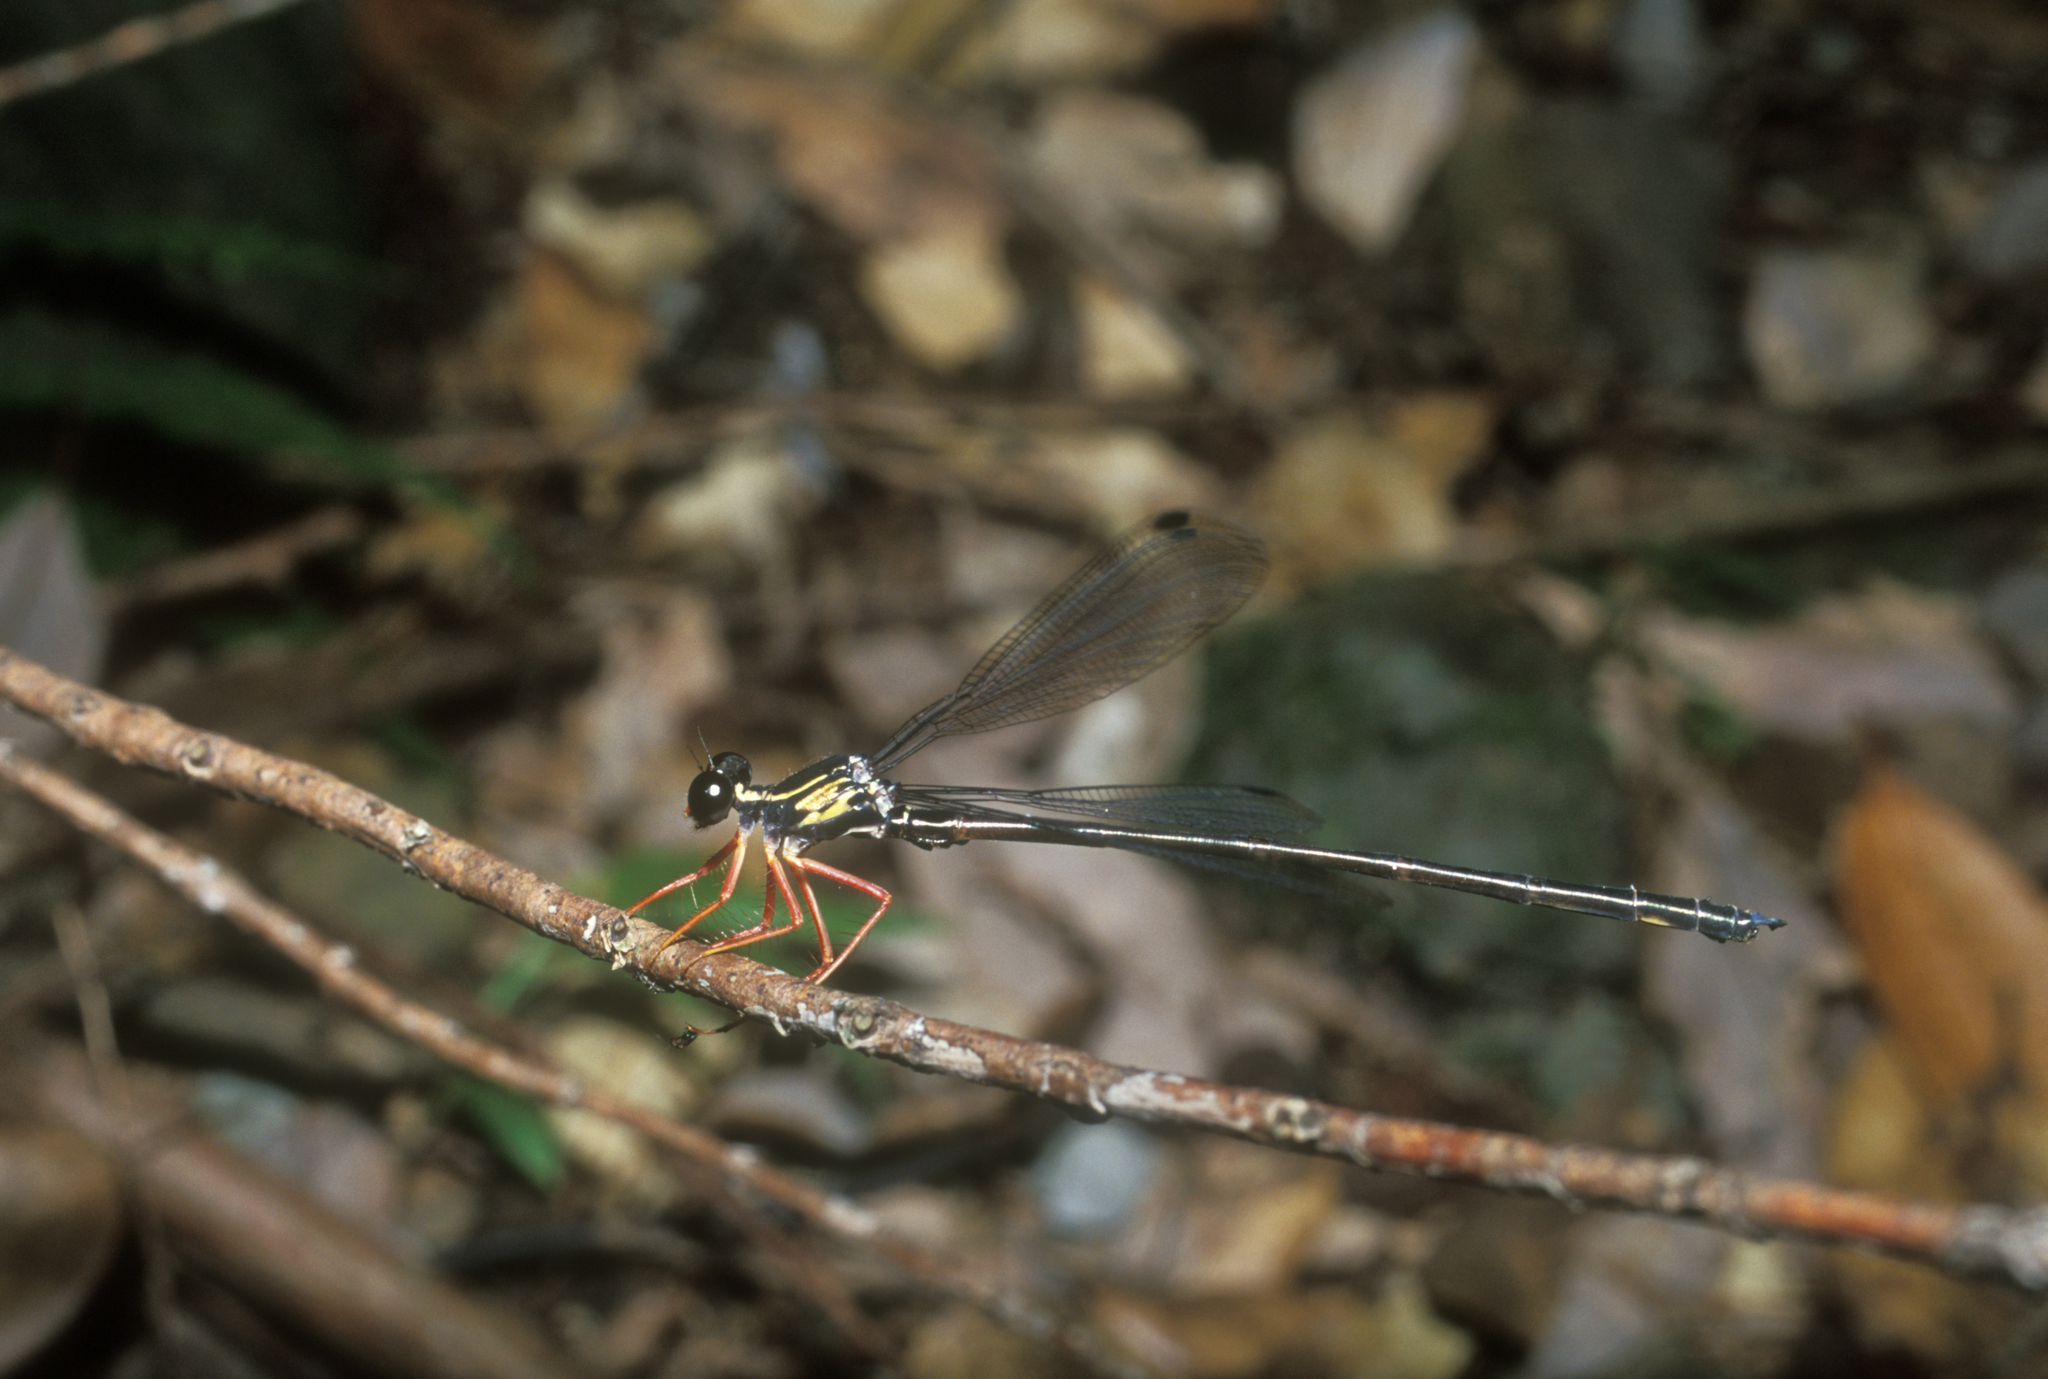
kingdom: Animalia
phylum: Arthropoda
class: Insecta
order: Odonata
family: Megapodagrionidae
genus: Rhipidolestes
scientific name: Rhipidolestes hiraoi
